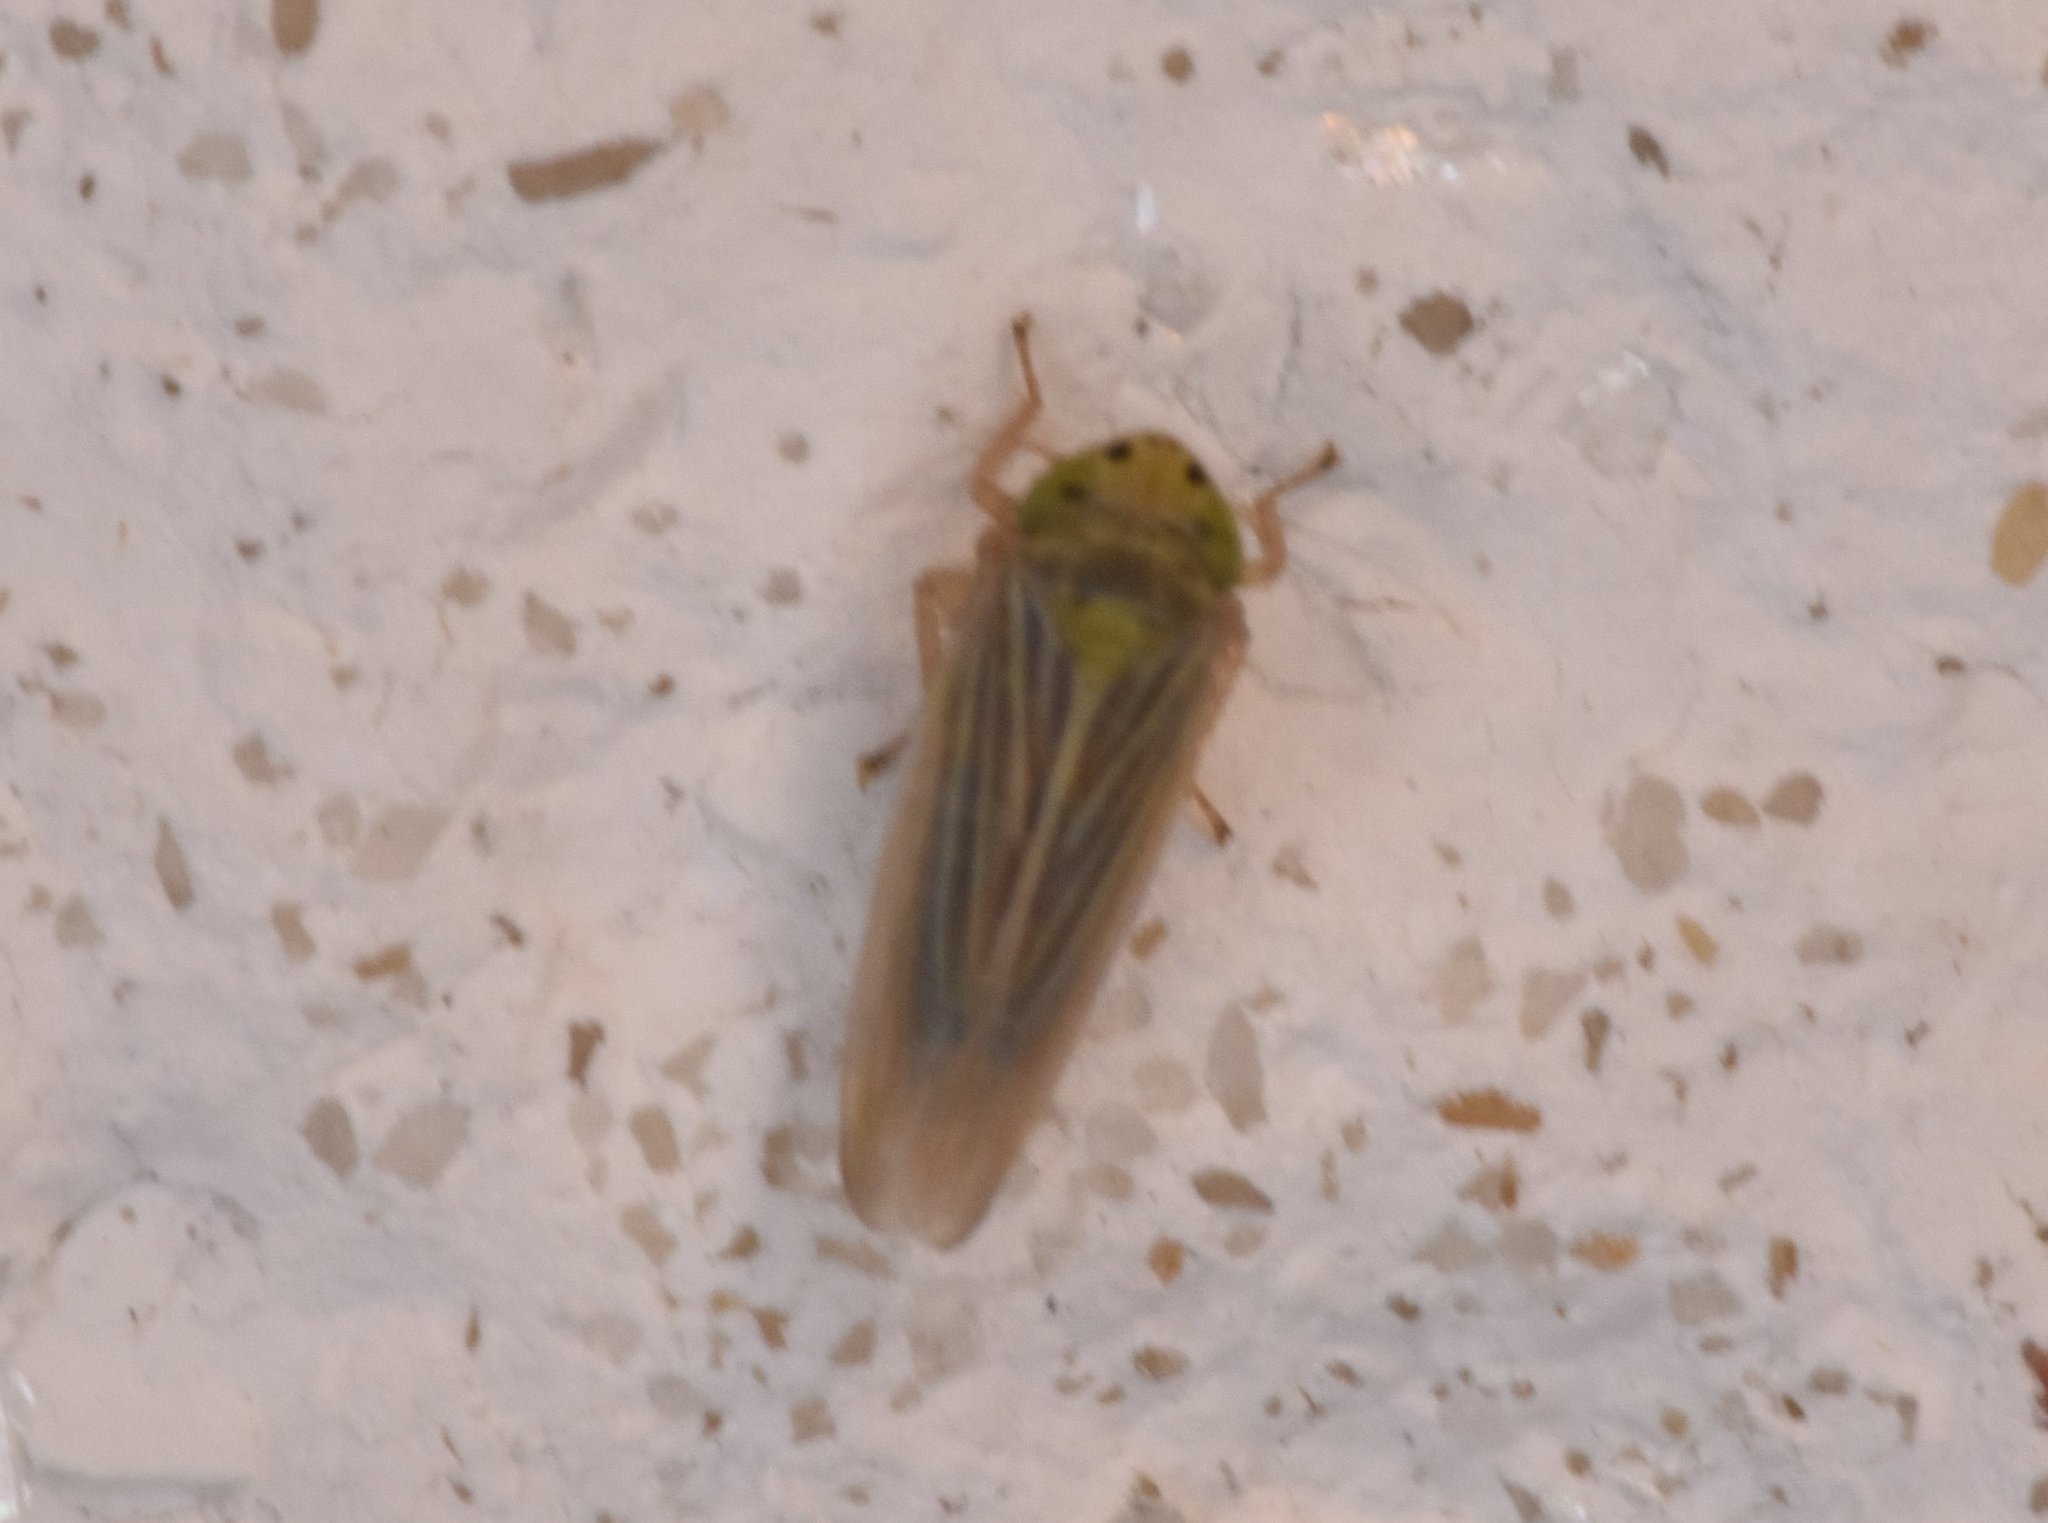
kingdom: Animalia
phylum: Arthropoda
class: Insecta
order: Hemiptera
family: Cicadellidae
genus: Graminella
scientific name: Graminella cognita
